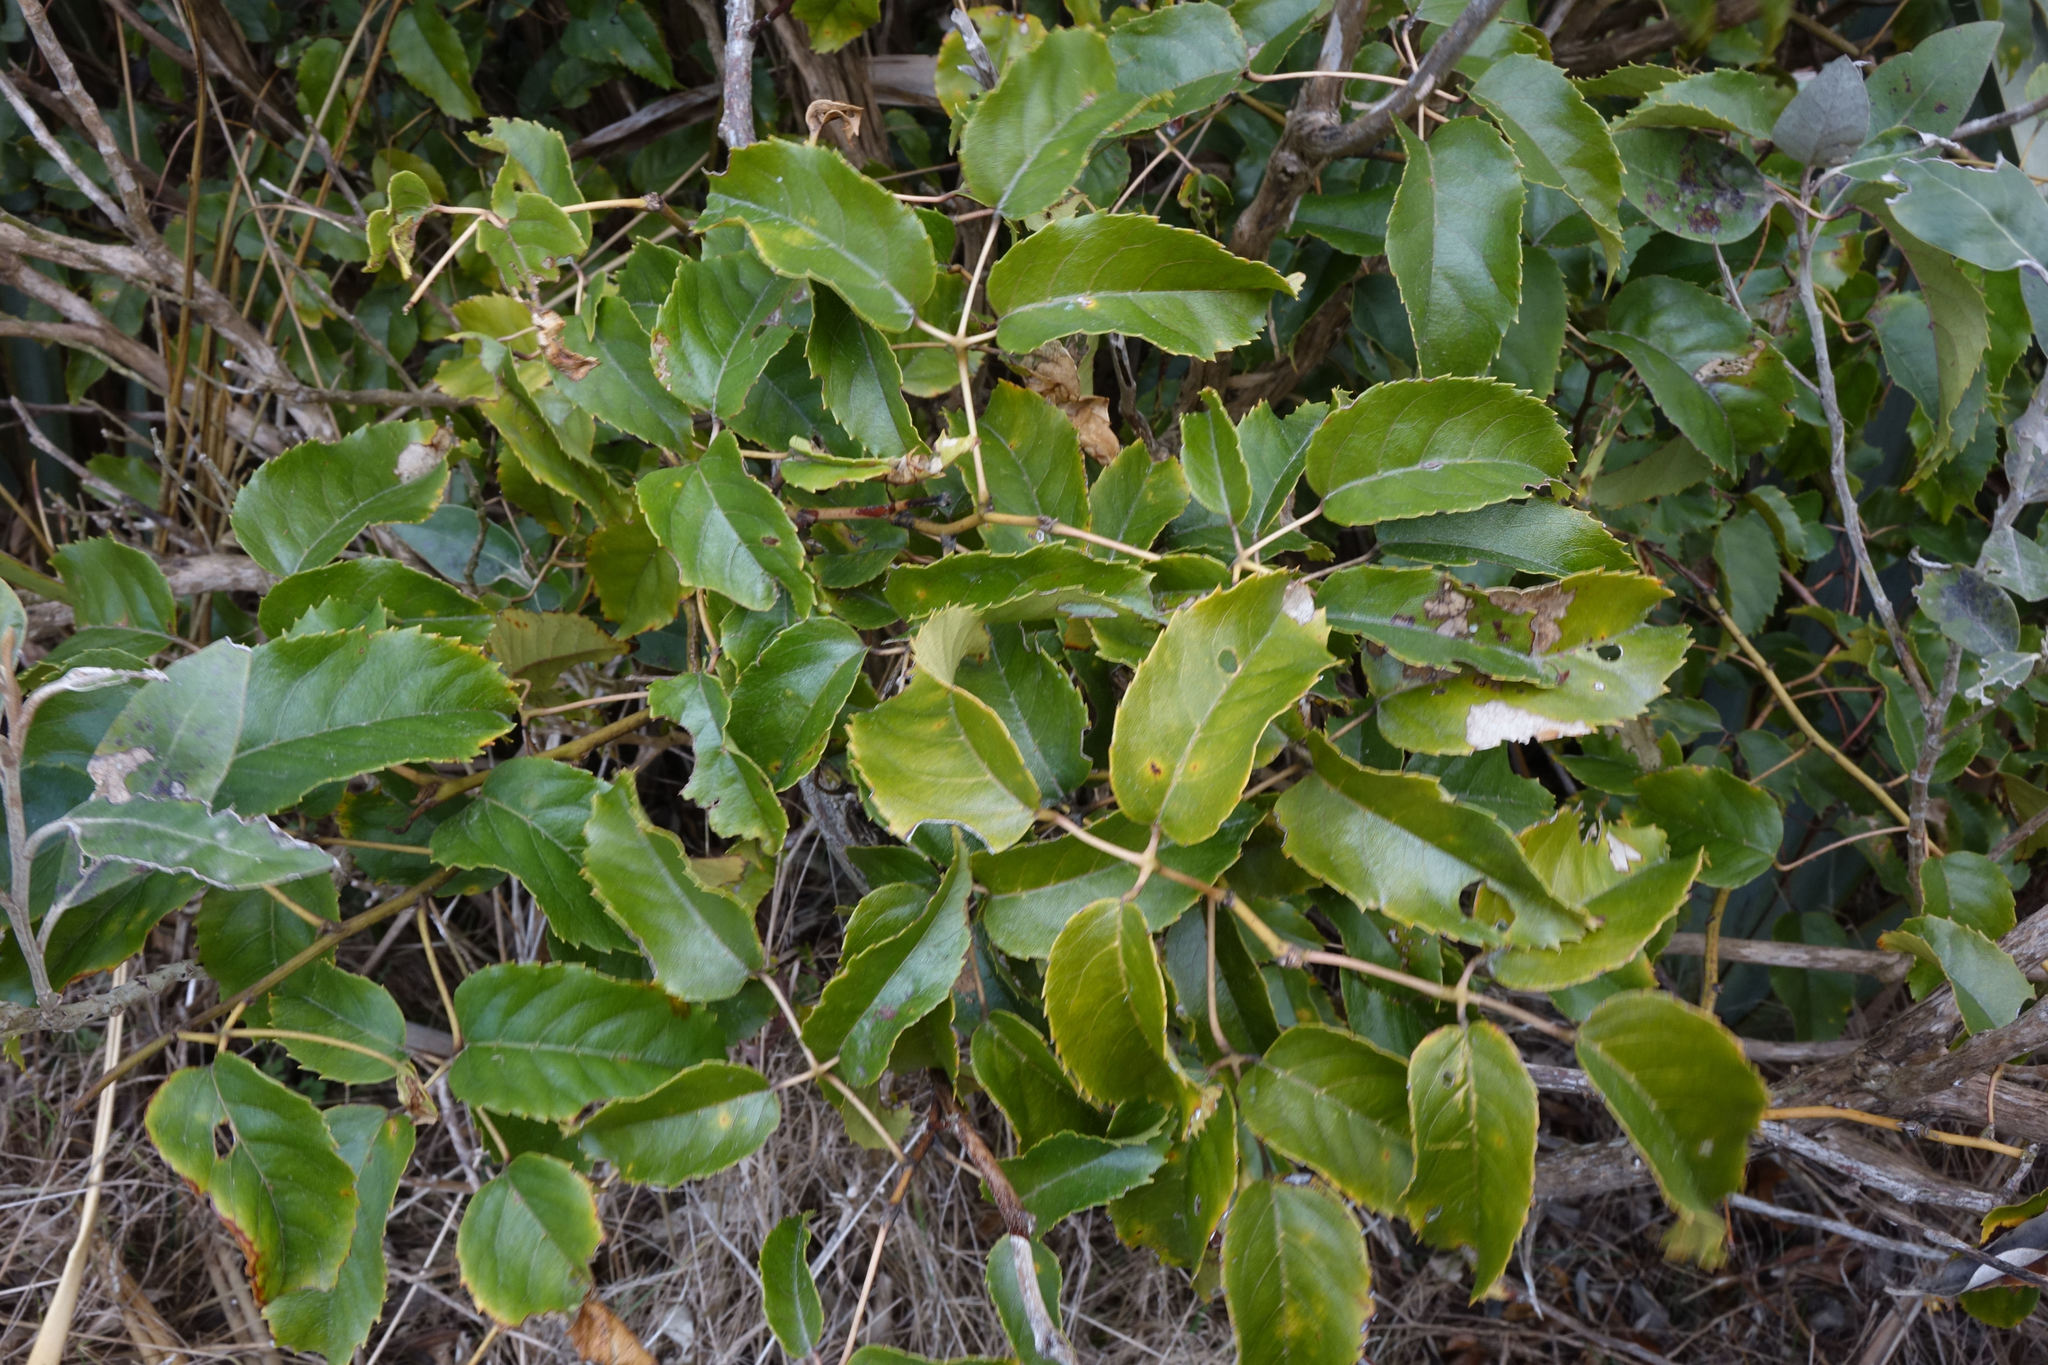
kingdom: Plantae
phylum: Tracheophyta
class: Magnoliopsida
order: Rosales
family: Rosaceae
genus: Rubus
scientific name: Rubus cissoides
